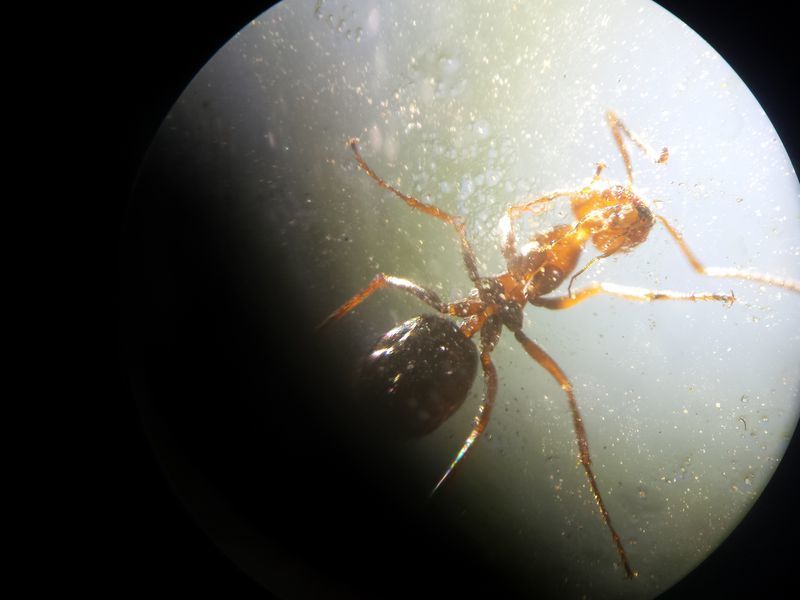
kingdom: Animalia
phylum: Arthropoda
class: Insecta
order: Hymenoptera
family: Formicidae
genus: Endiodioctes
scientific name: Endiodioctes
